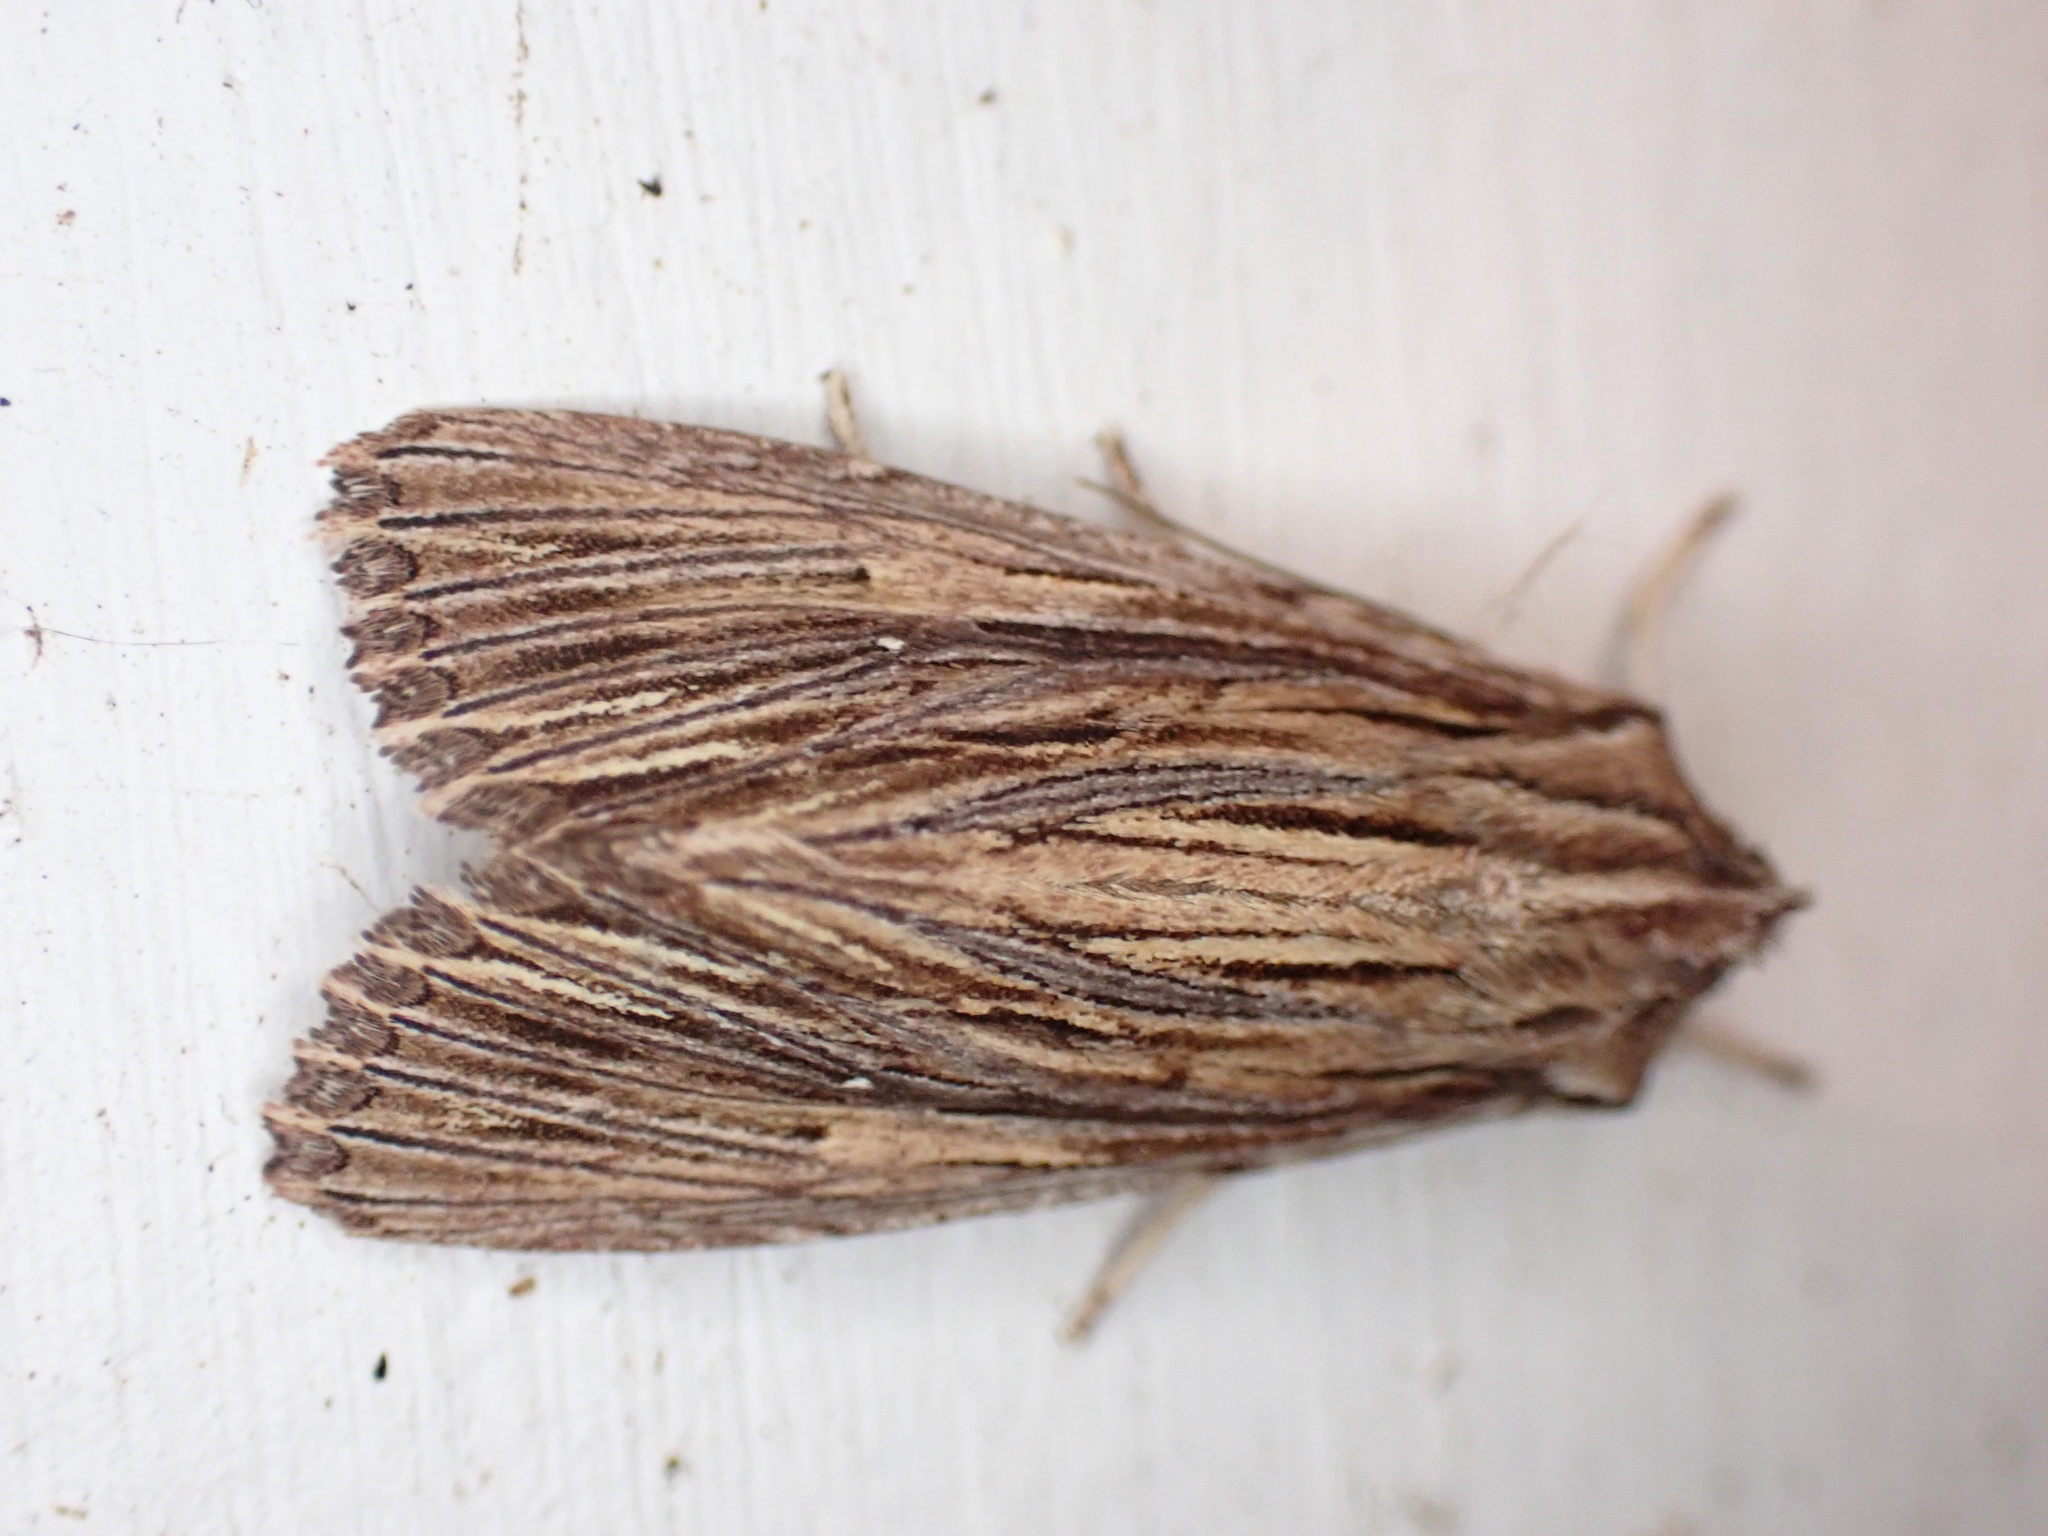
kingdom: Animalia
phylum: Arthropoda
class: Insecta
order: Lepidoptera
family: Noctuidae
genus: Ichneutica
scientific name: Ichneutica
